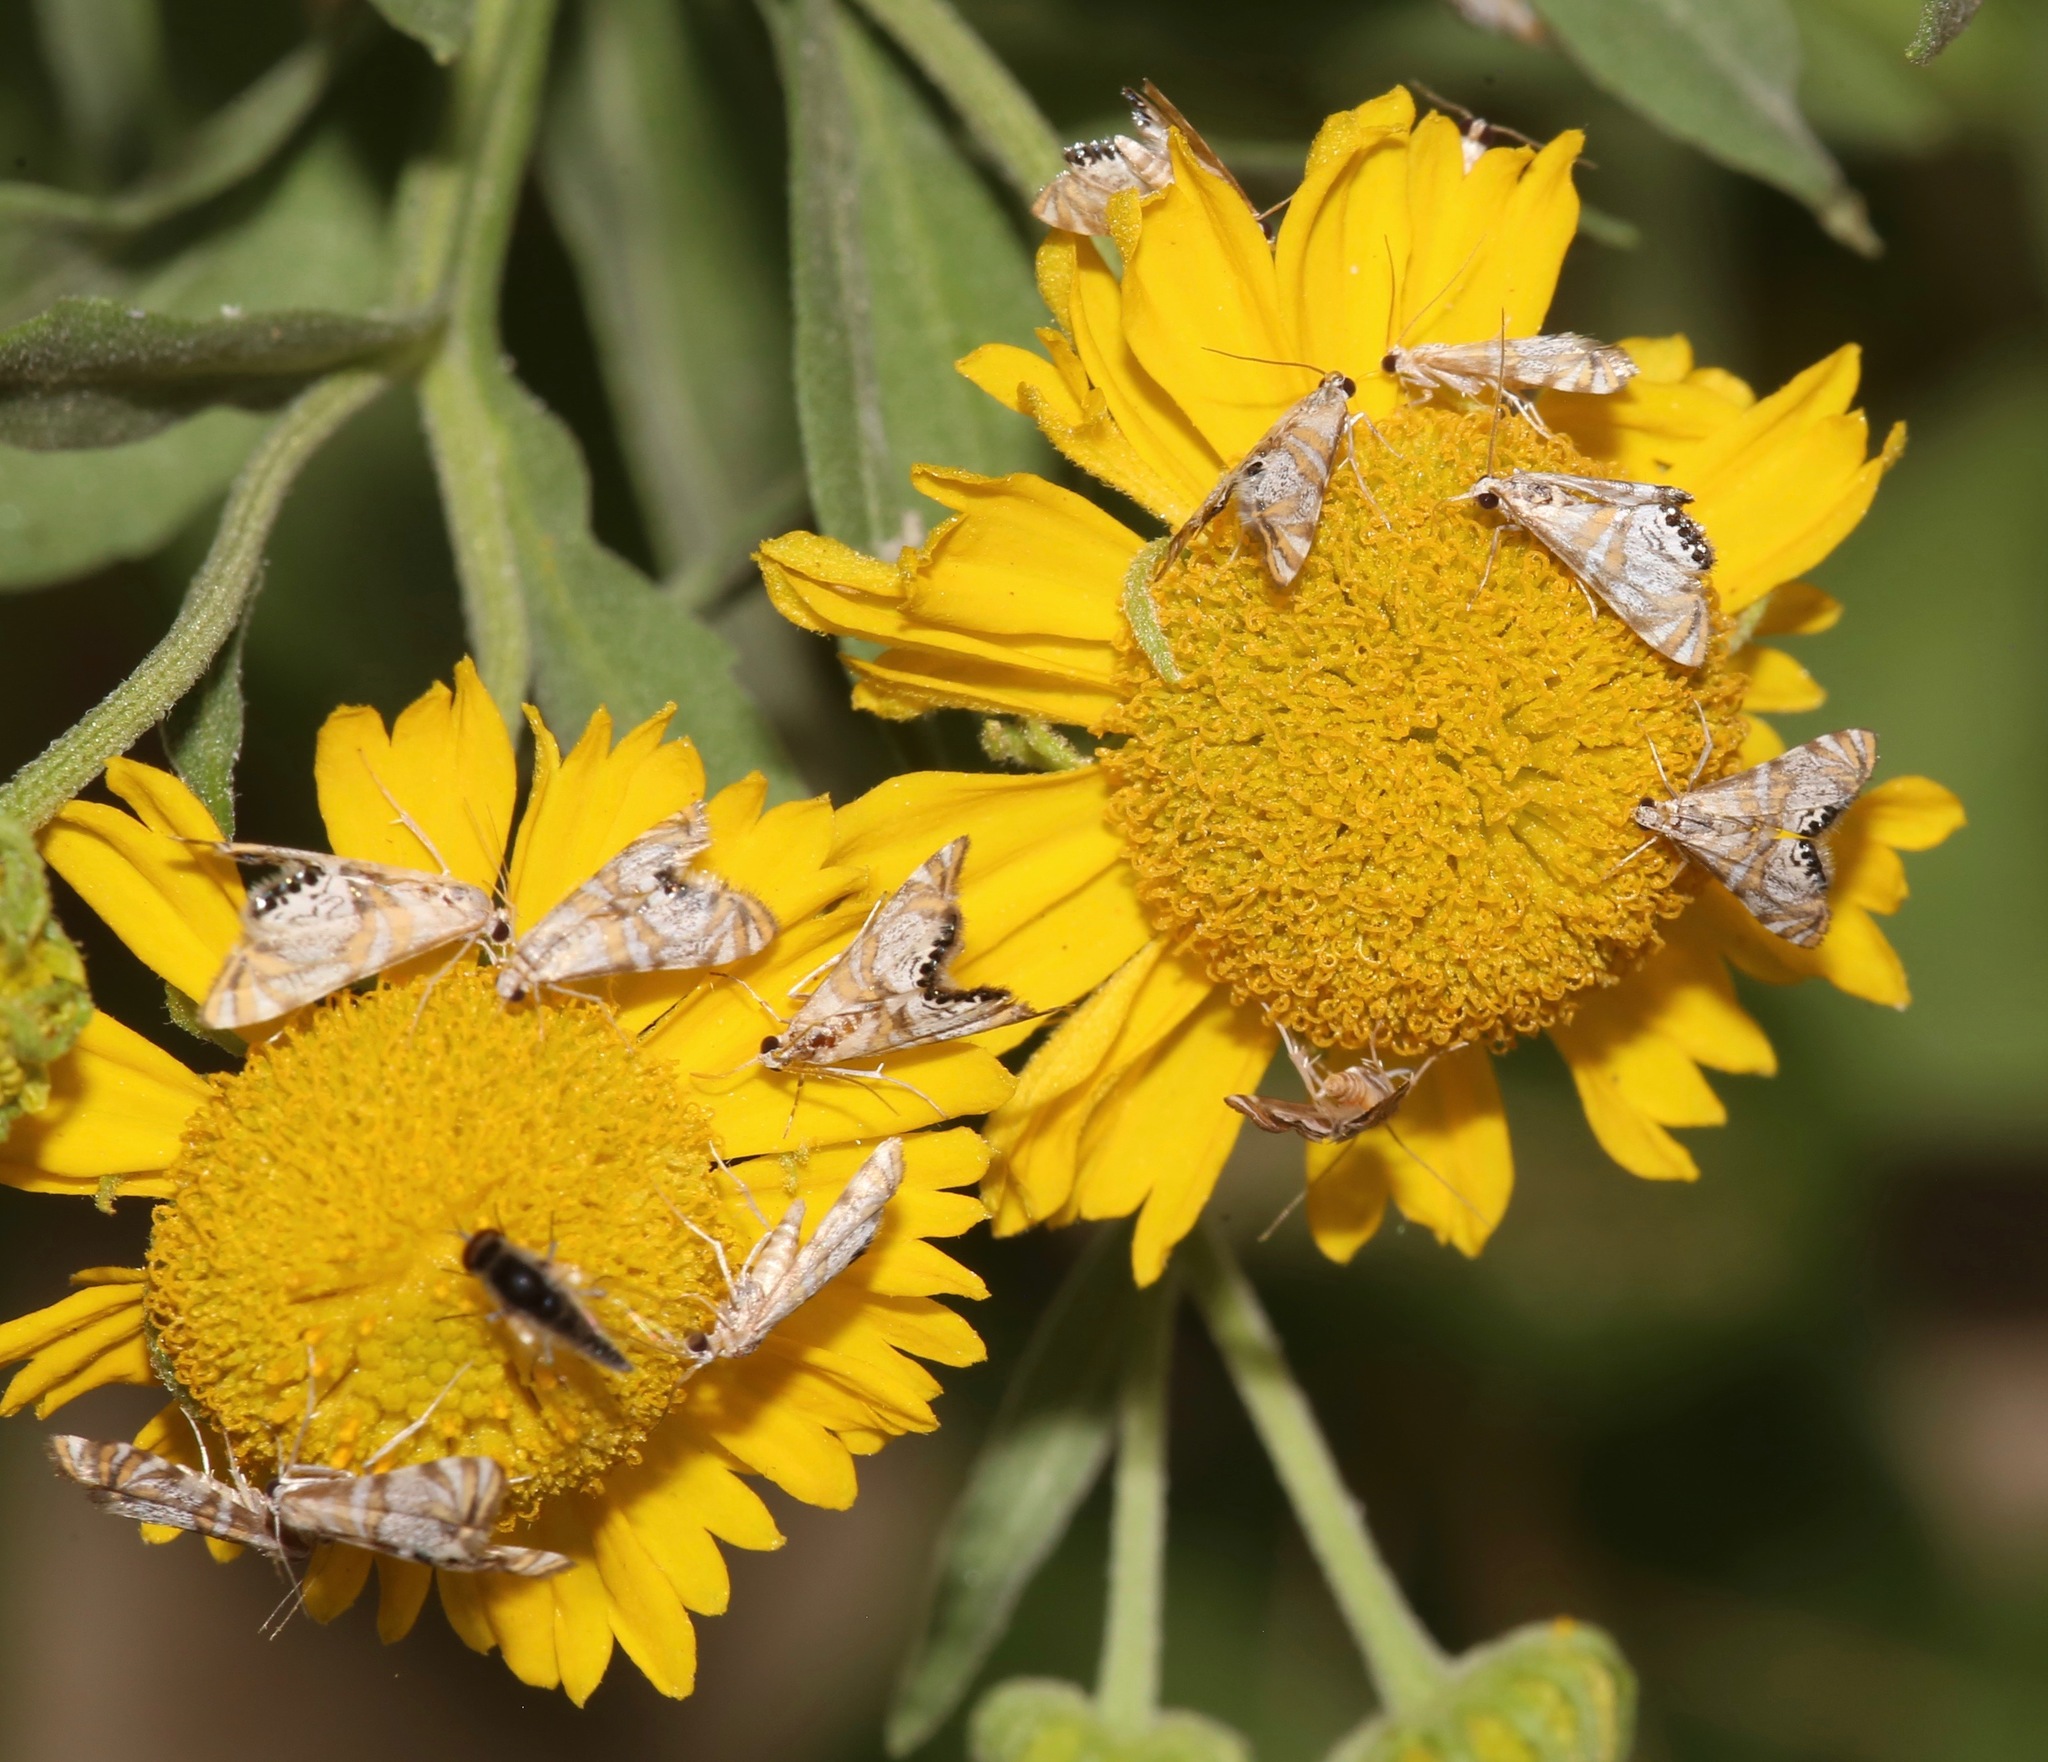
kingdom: Animalia
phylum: Arthropoda
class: Insecta
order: Lepidoptera
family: Crambidae
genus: Petrophila
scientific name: Petrophila kearfottalis
